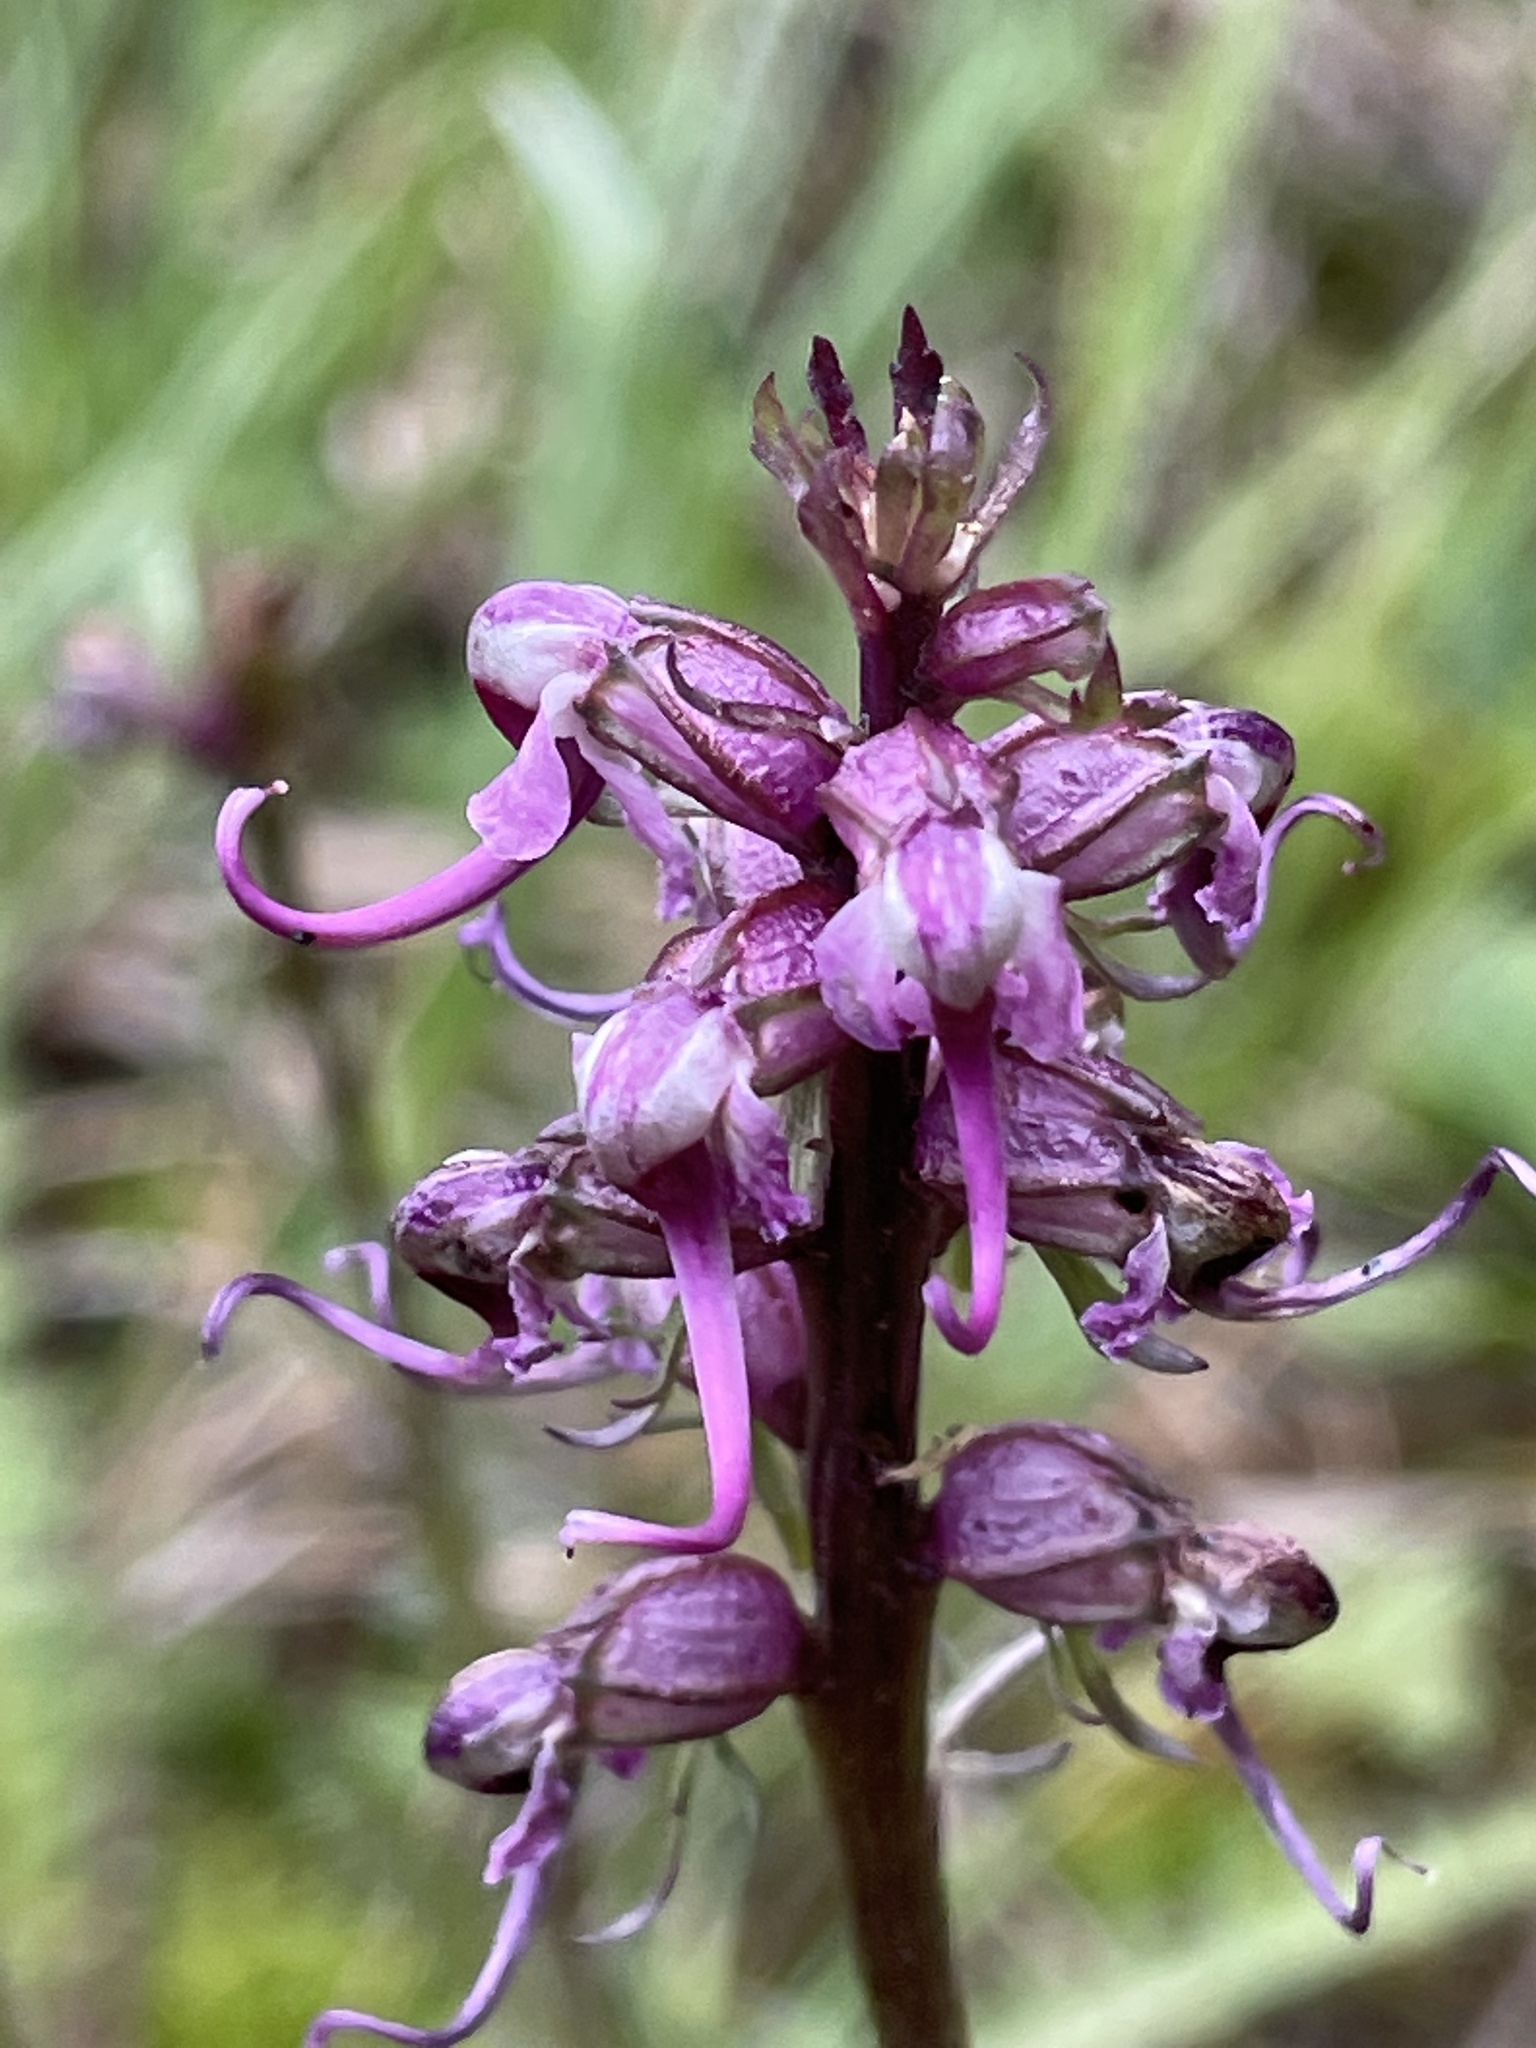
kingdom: Plantae
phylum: Tracheophyta
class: Magnoliopsida
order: Lamiales
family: Orobanchaceae
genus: Pedicularis
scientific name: Pedicularis groenlandica
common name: Elephant's-head
